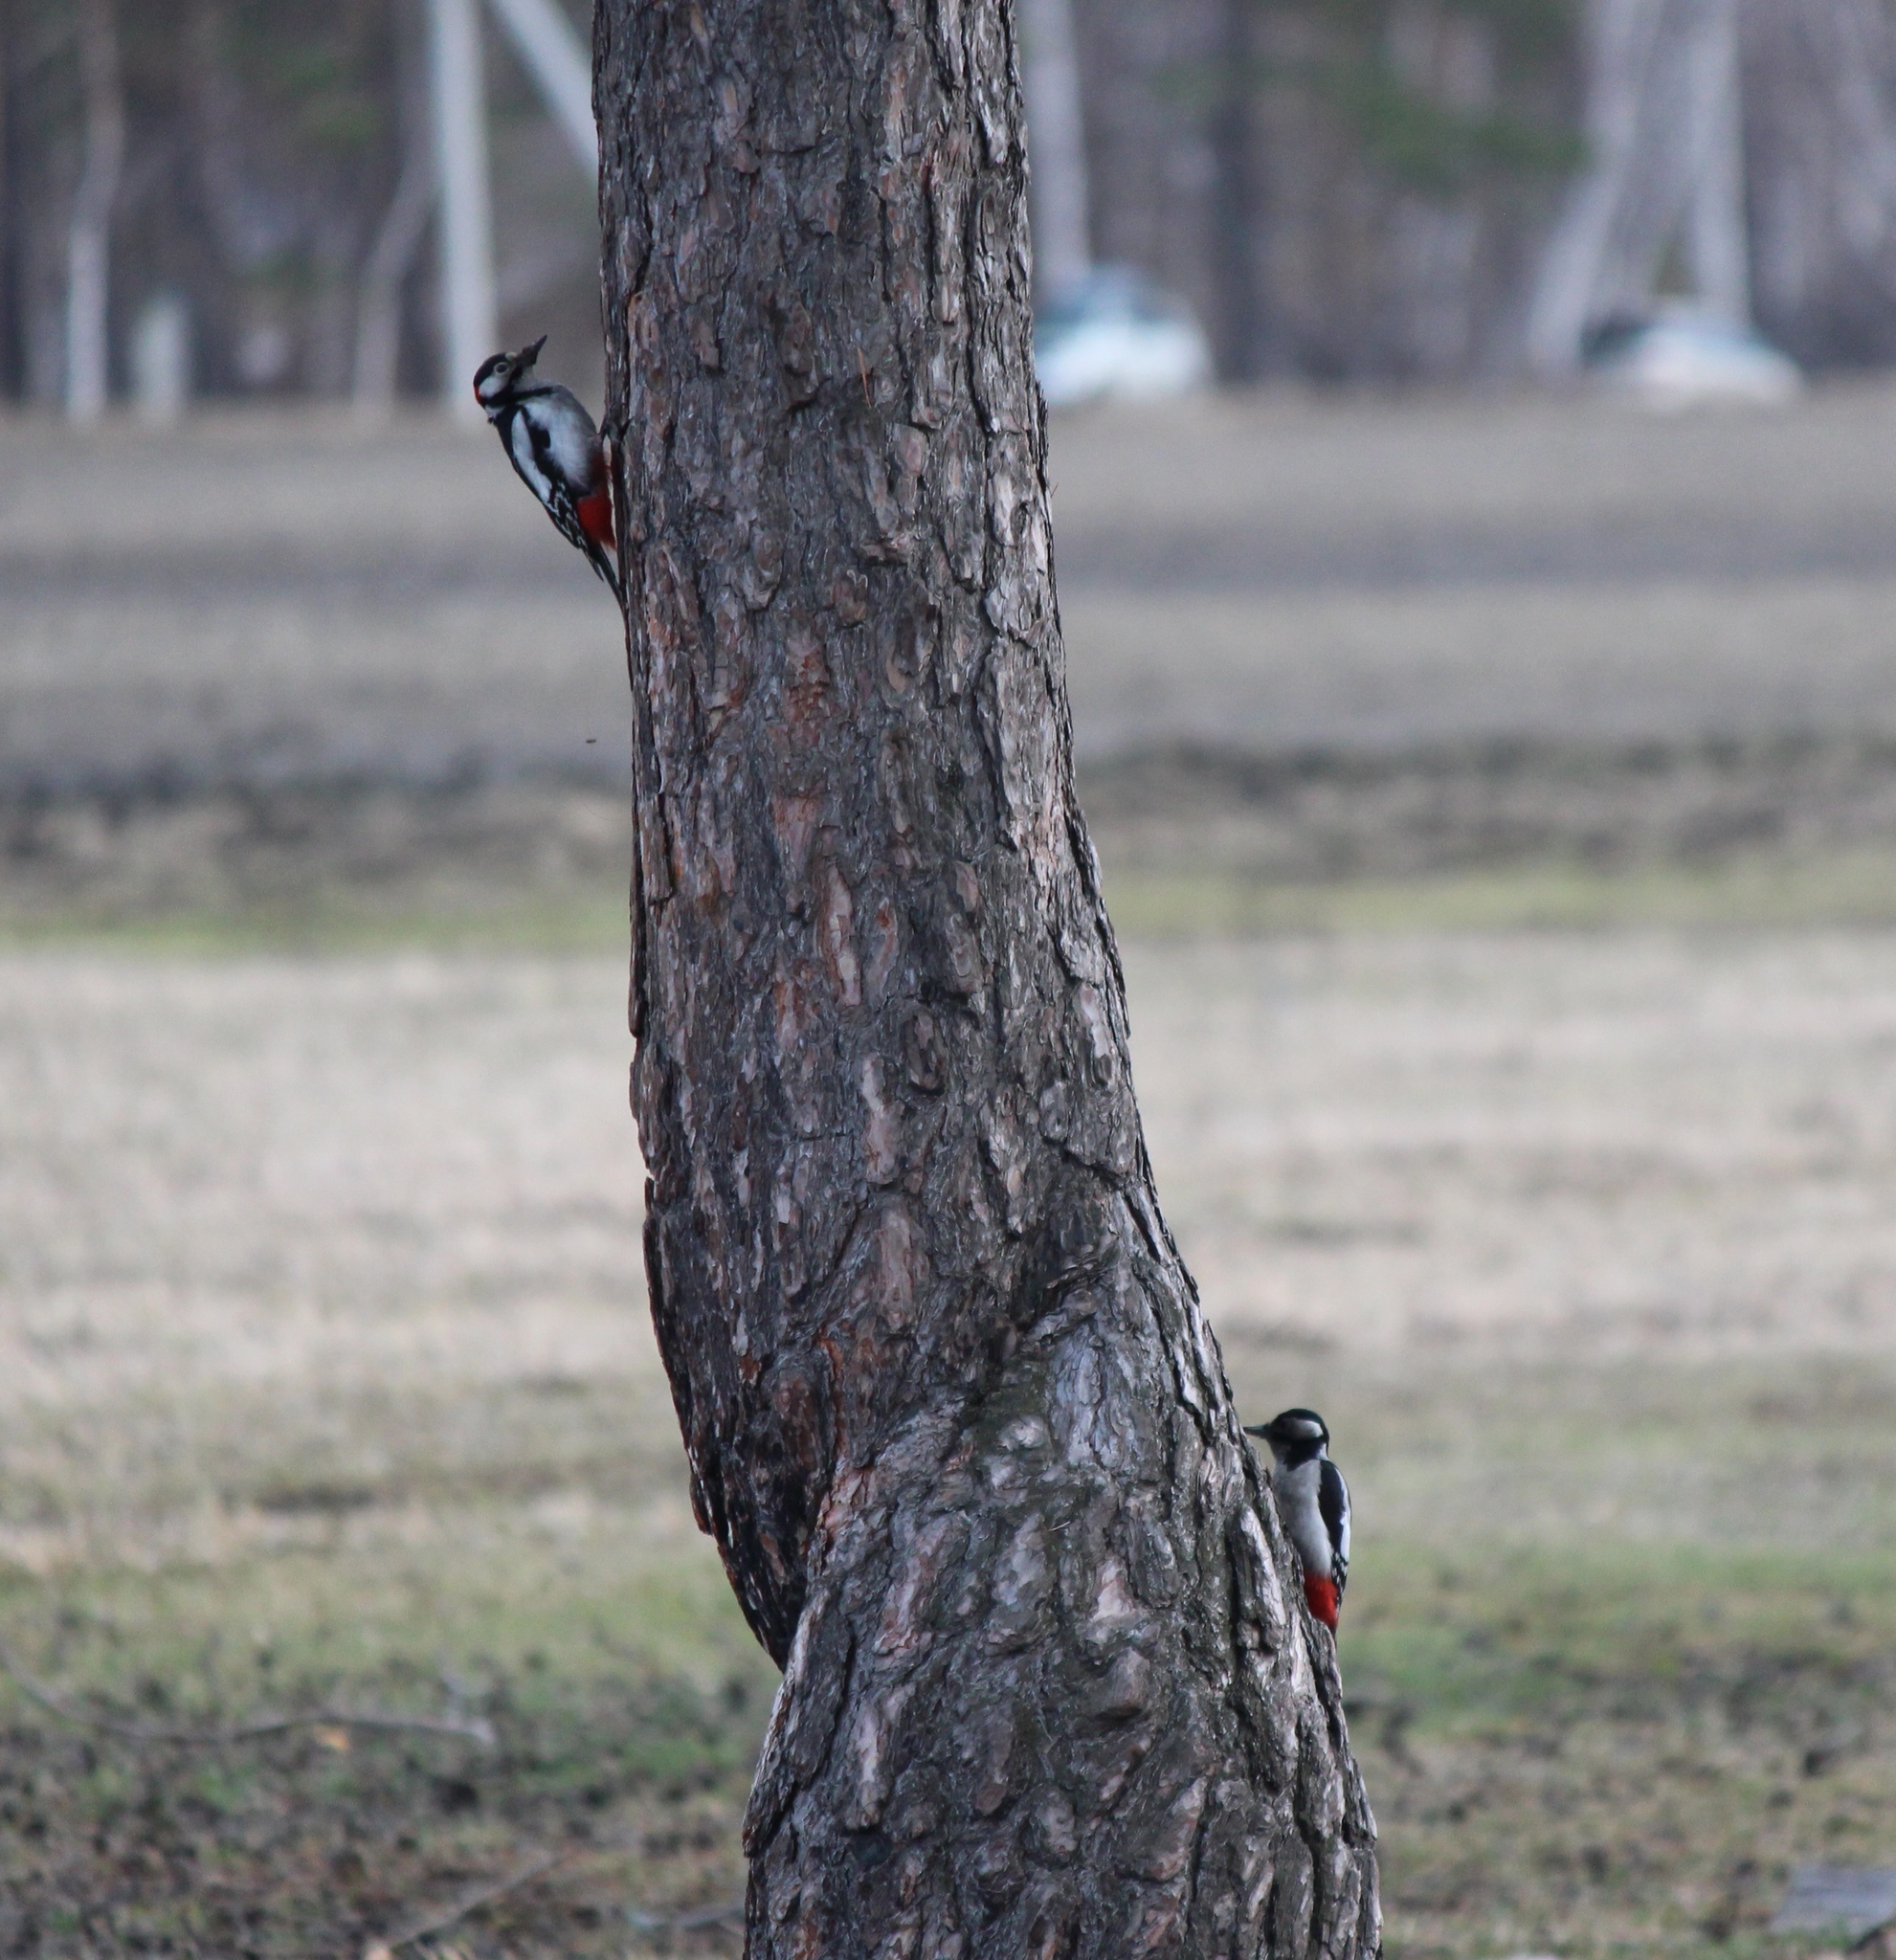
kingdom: Animalia
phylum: Chordata
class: Aves
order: Piciformes
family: Picidae
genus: Dendrocopos
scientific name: Dendrocopos major
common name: Great spotted woodpecker
